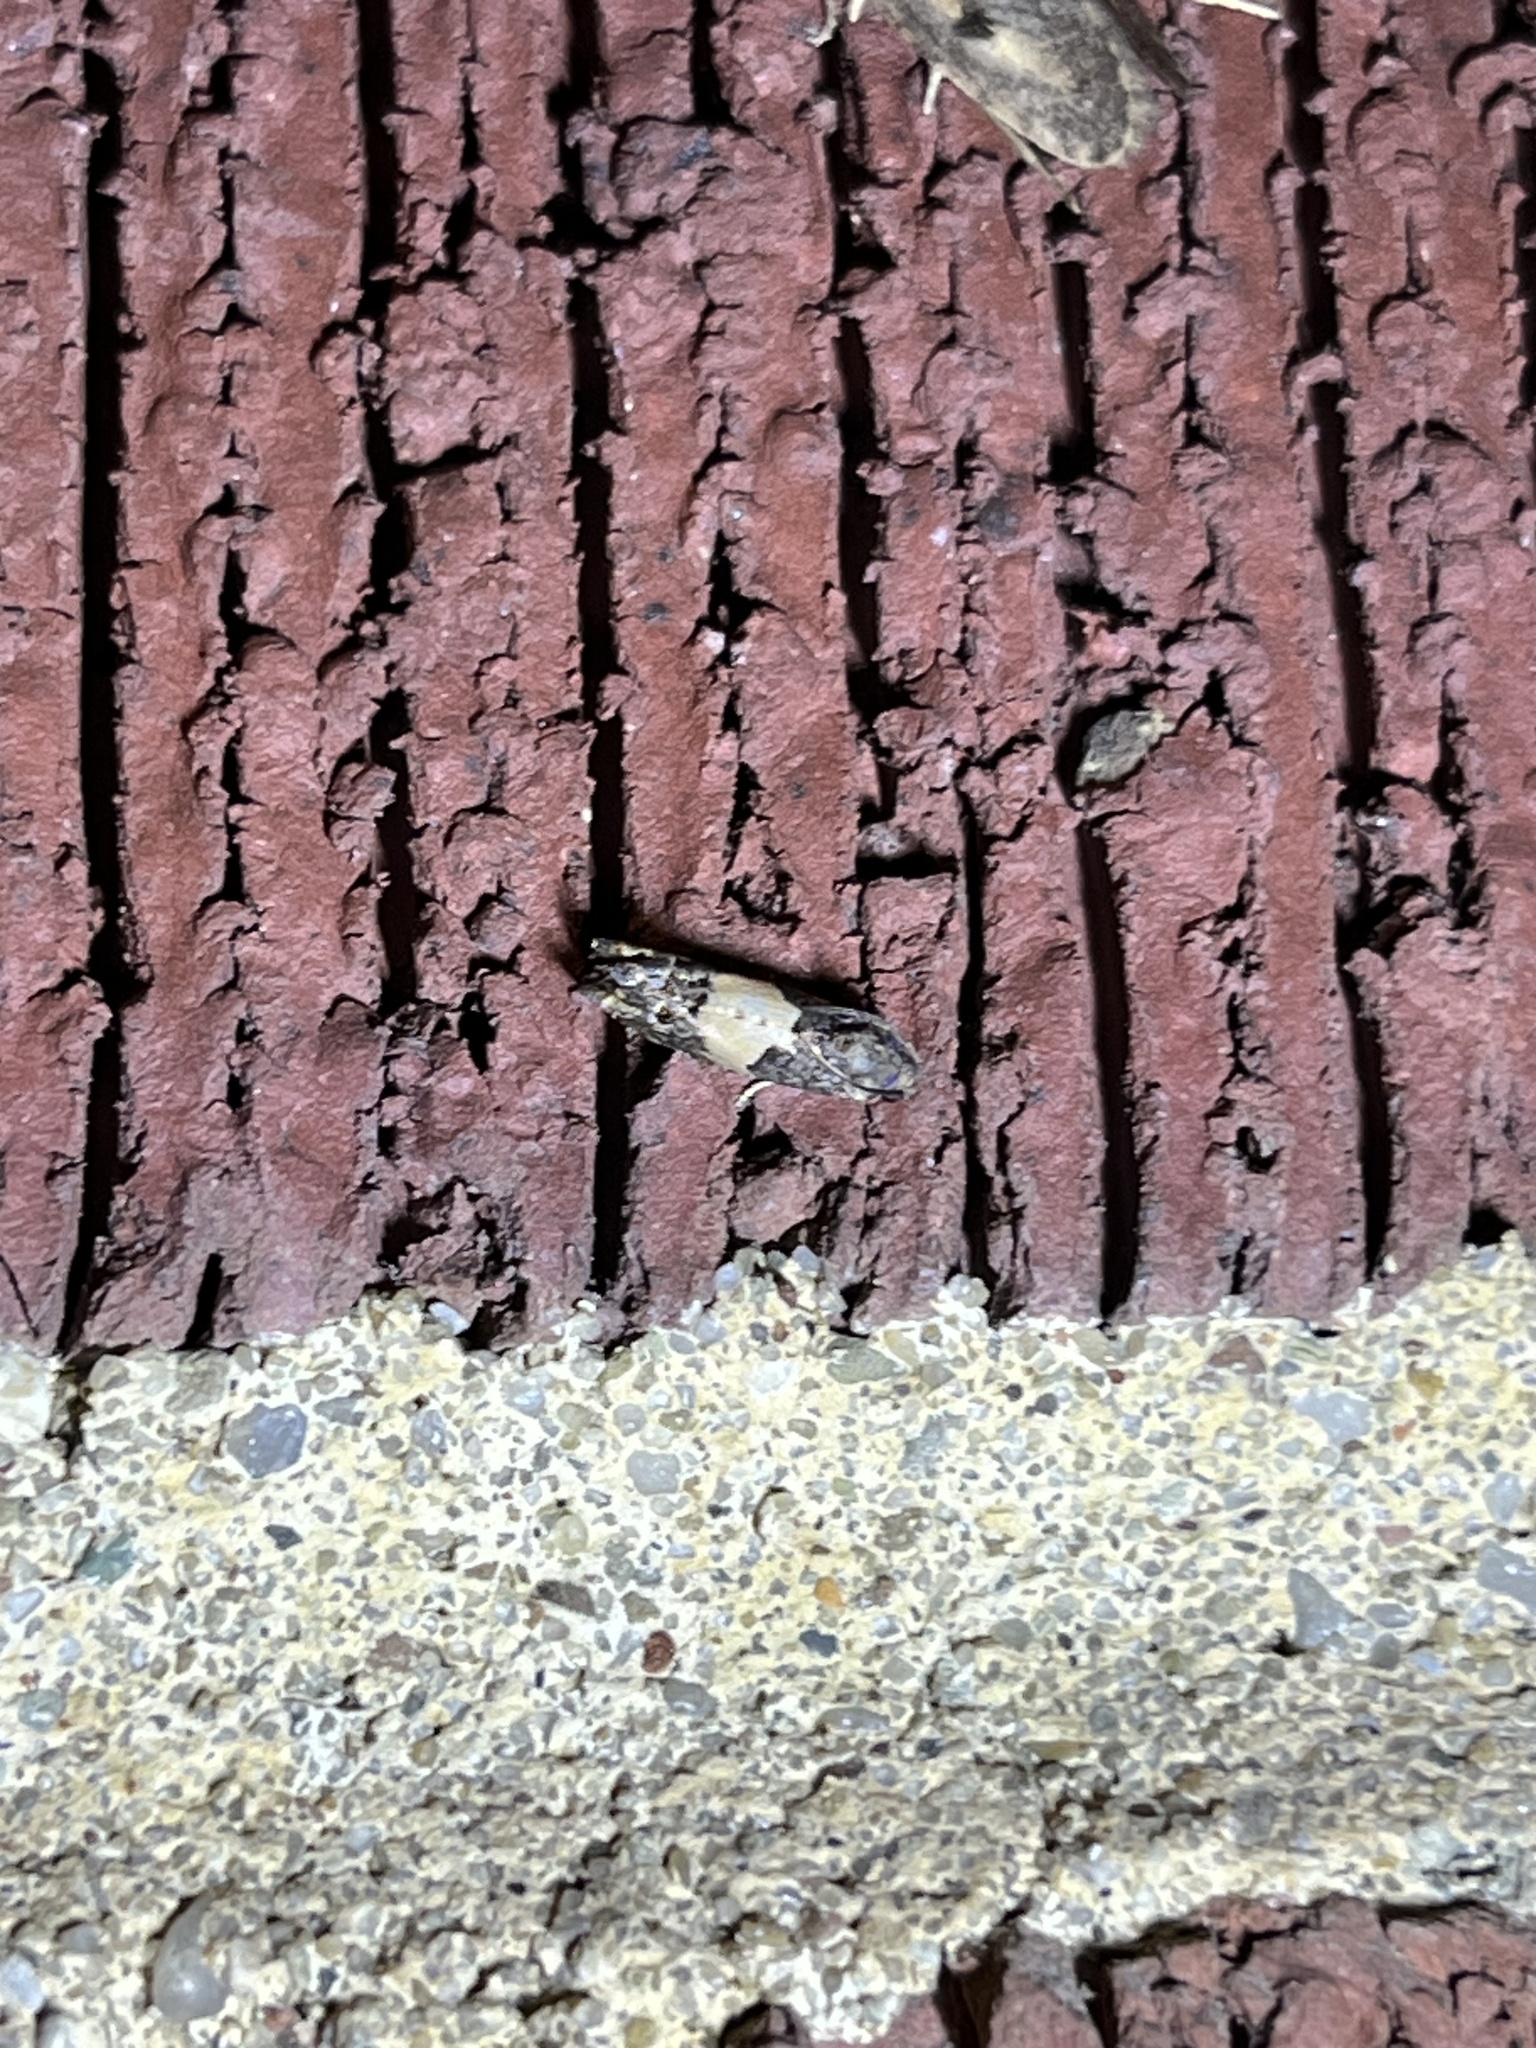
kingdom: Animalia
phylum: Arthropoda
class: Insecta
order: Lepidoptera
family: Tortricidae
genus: Epiblema
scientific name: Epiblema glenni
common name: Glenn's epiblema
